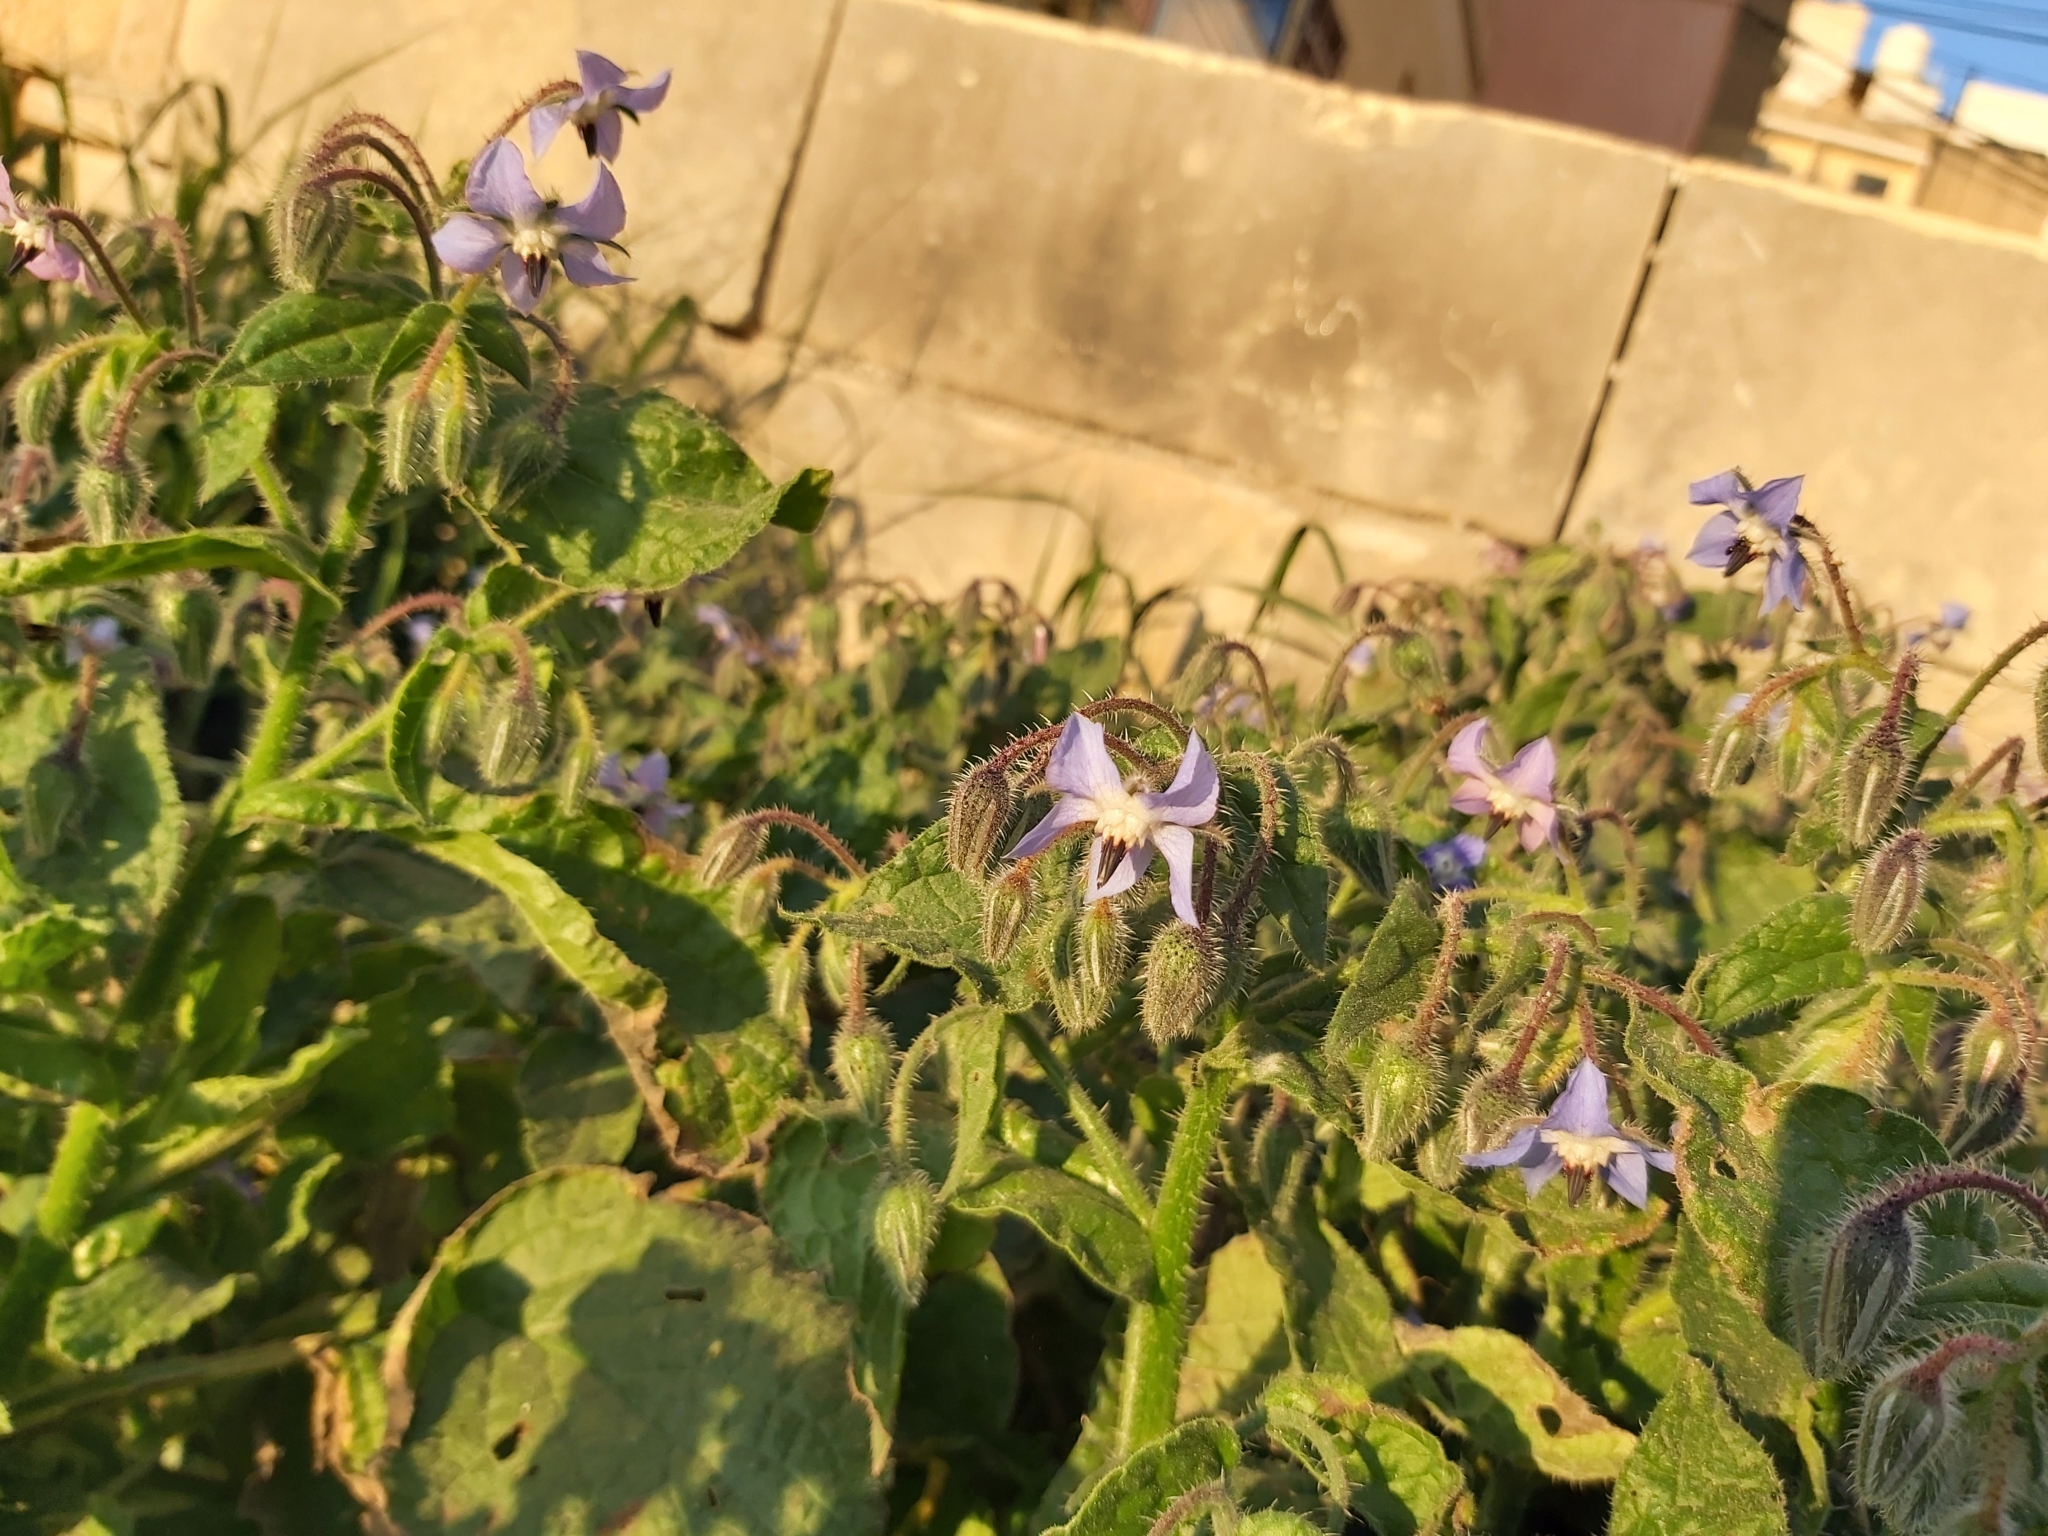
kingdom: Plantae
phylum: Tracheophyta
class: Magnoliopsida
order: Boraginales
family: Boraginaceae
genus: Borago
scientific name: Borago officinalis
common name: Borage
